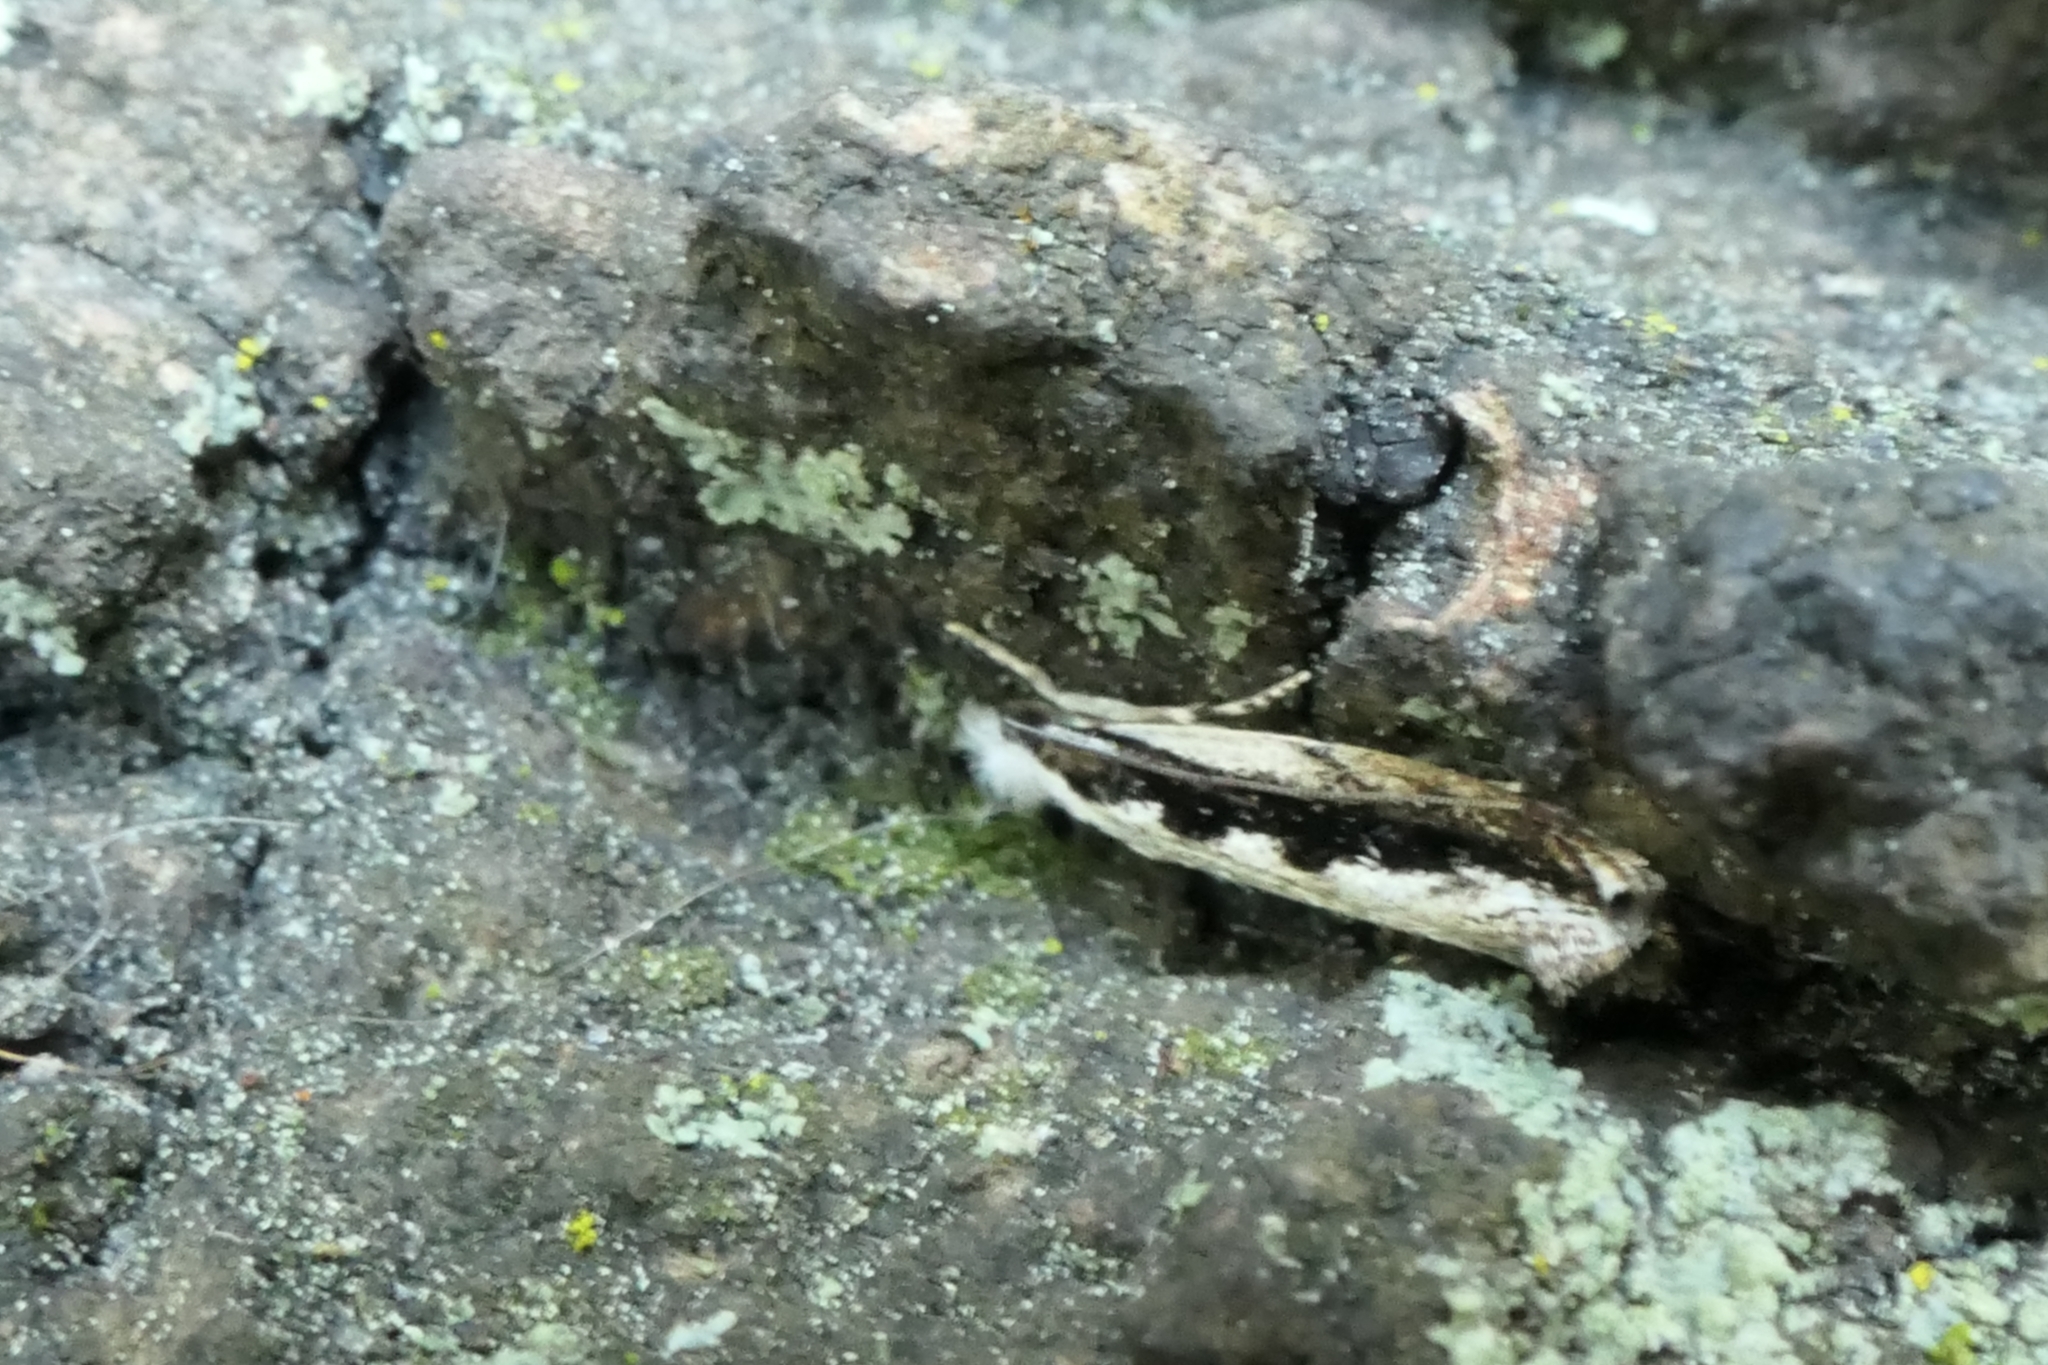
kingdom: Animalia
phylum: Arthropoda
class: Insecta
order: Lepidoptera
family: Tineidae
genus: Erechthias
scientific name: Erechthias fulguritella
